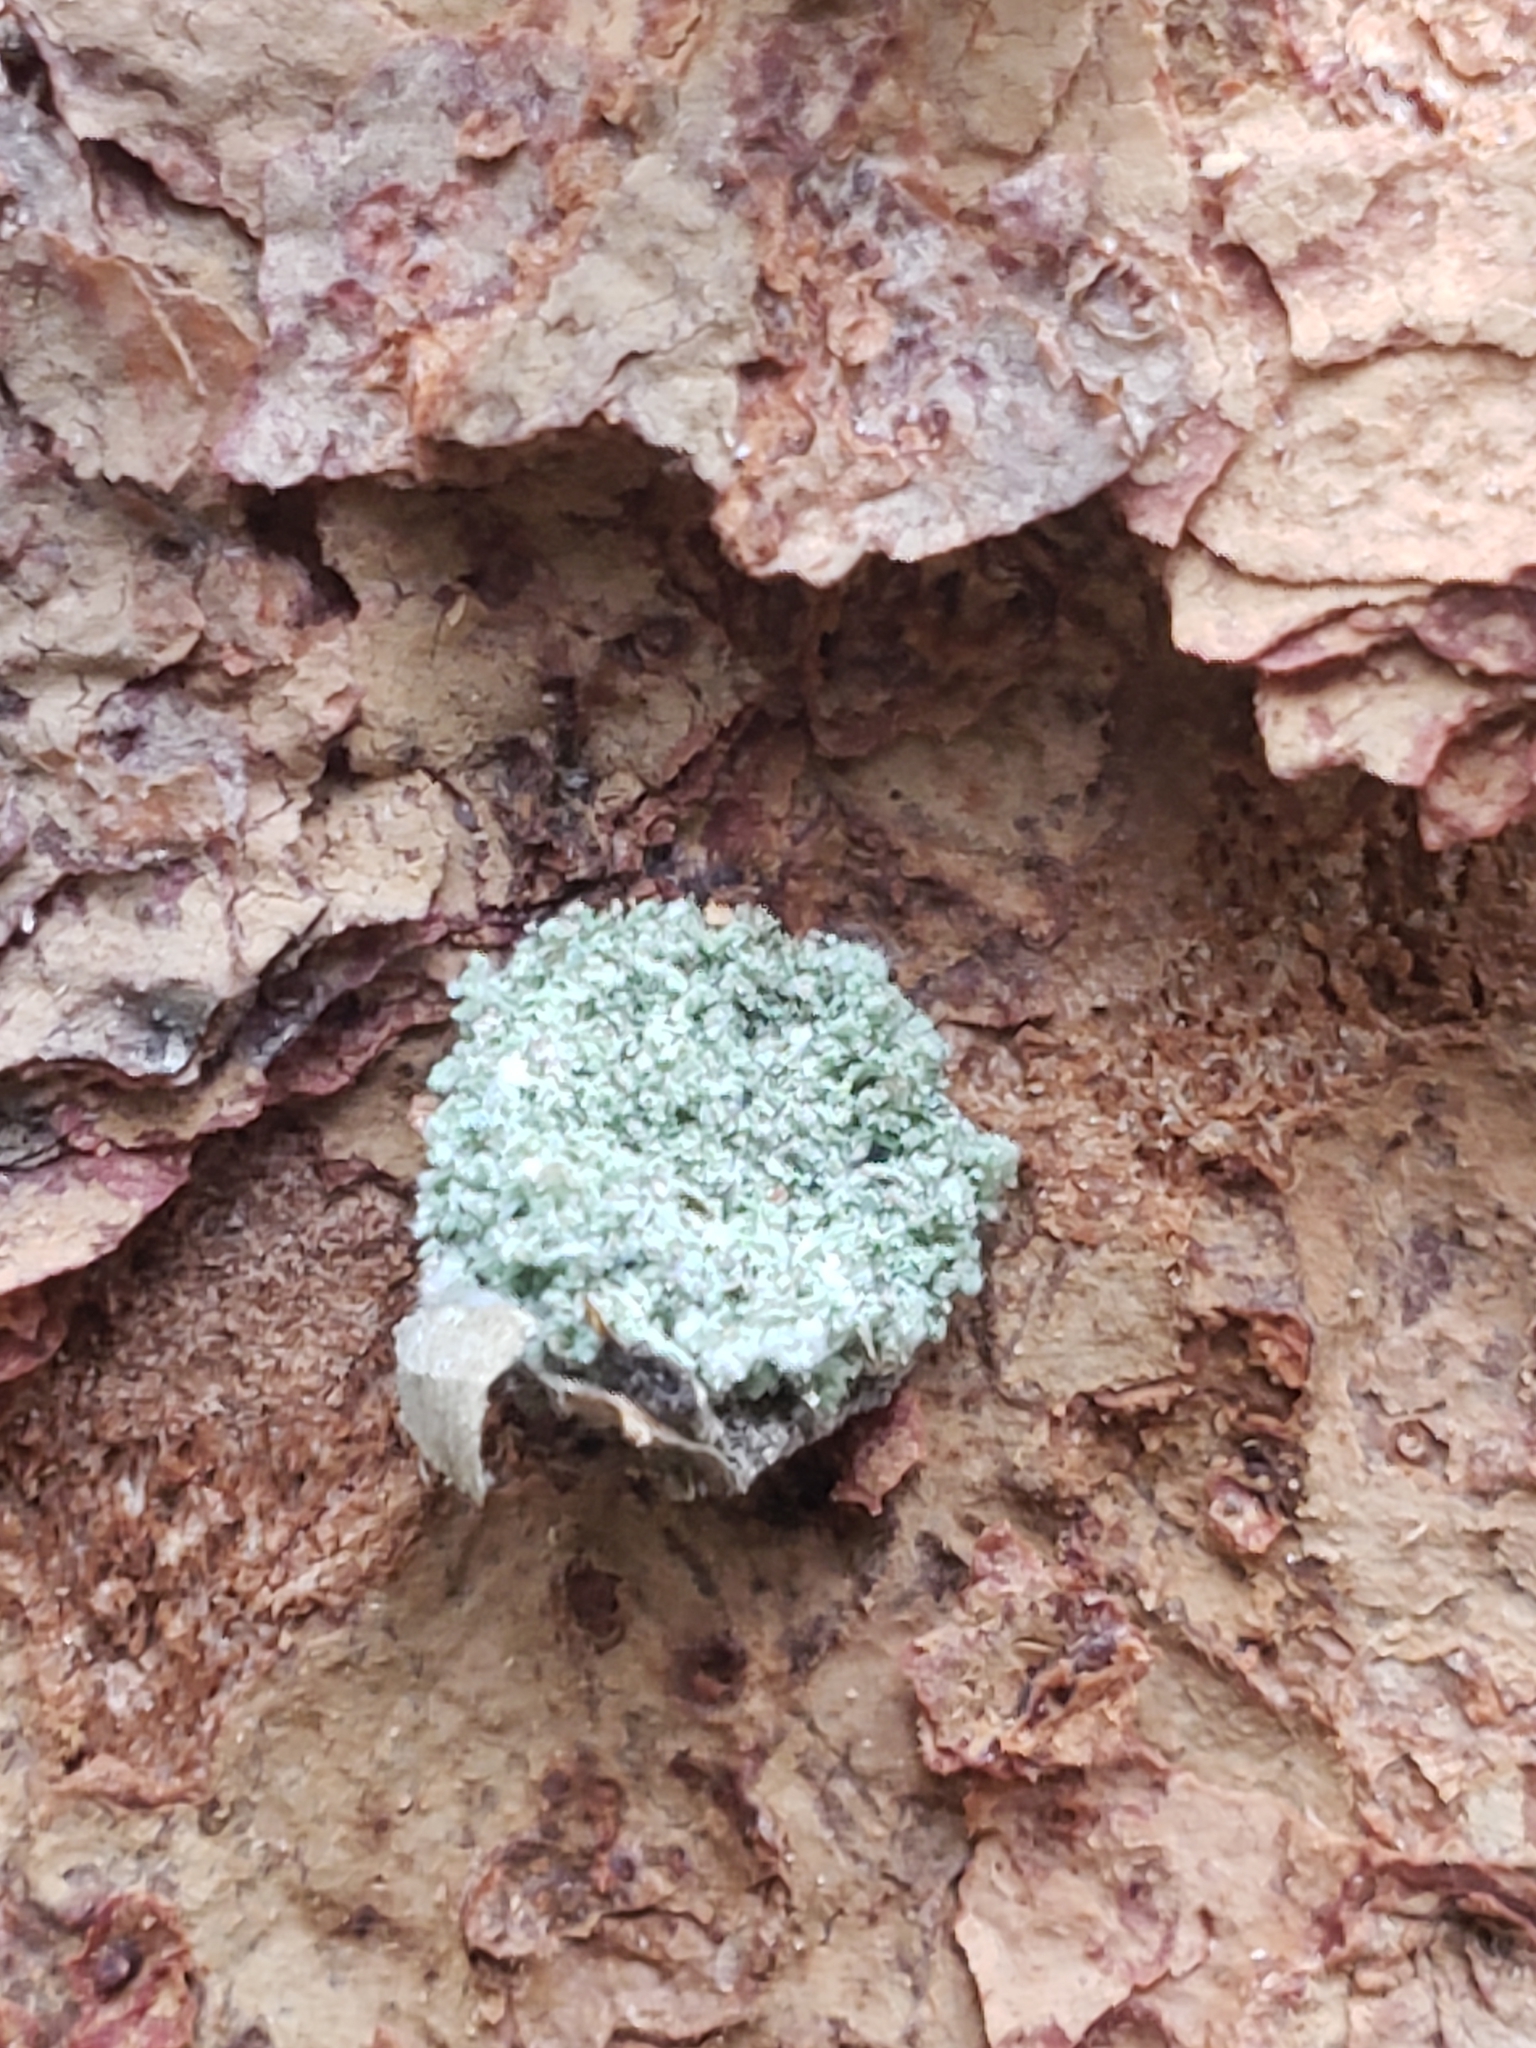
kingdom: Animalia
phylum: Arthropoda
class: Insecta
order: Neuroptera
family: Chrysopidae
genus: Leucochrysa
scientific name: Leucochrysa pavida
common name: Lichen-carrying green lacewing
